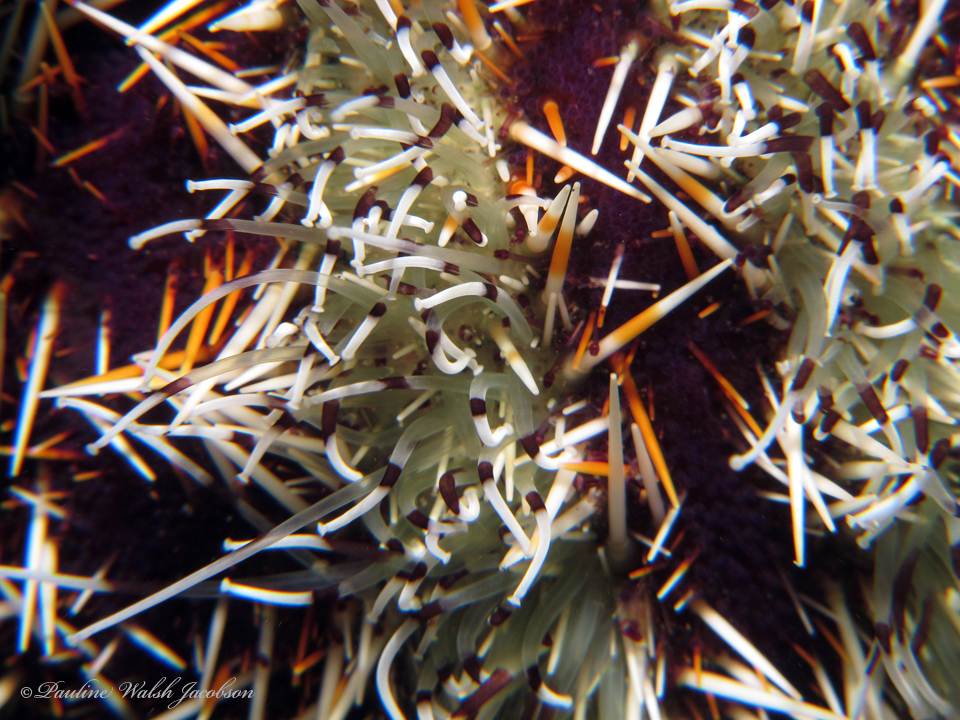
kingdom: Animalia
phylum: Echinodermata
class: Echinoidea
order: Camarodonta
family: Toxopneustidae
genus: Tripneustes
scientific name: Tripneustes gratilla
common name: Bischofsmützenseeigel
